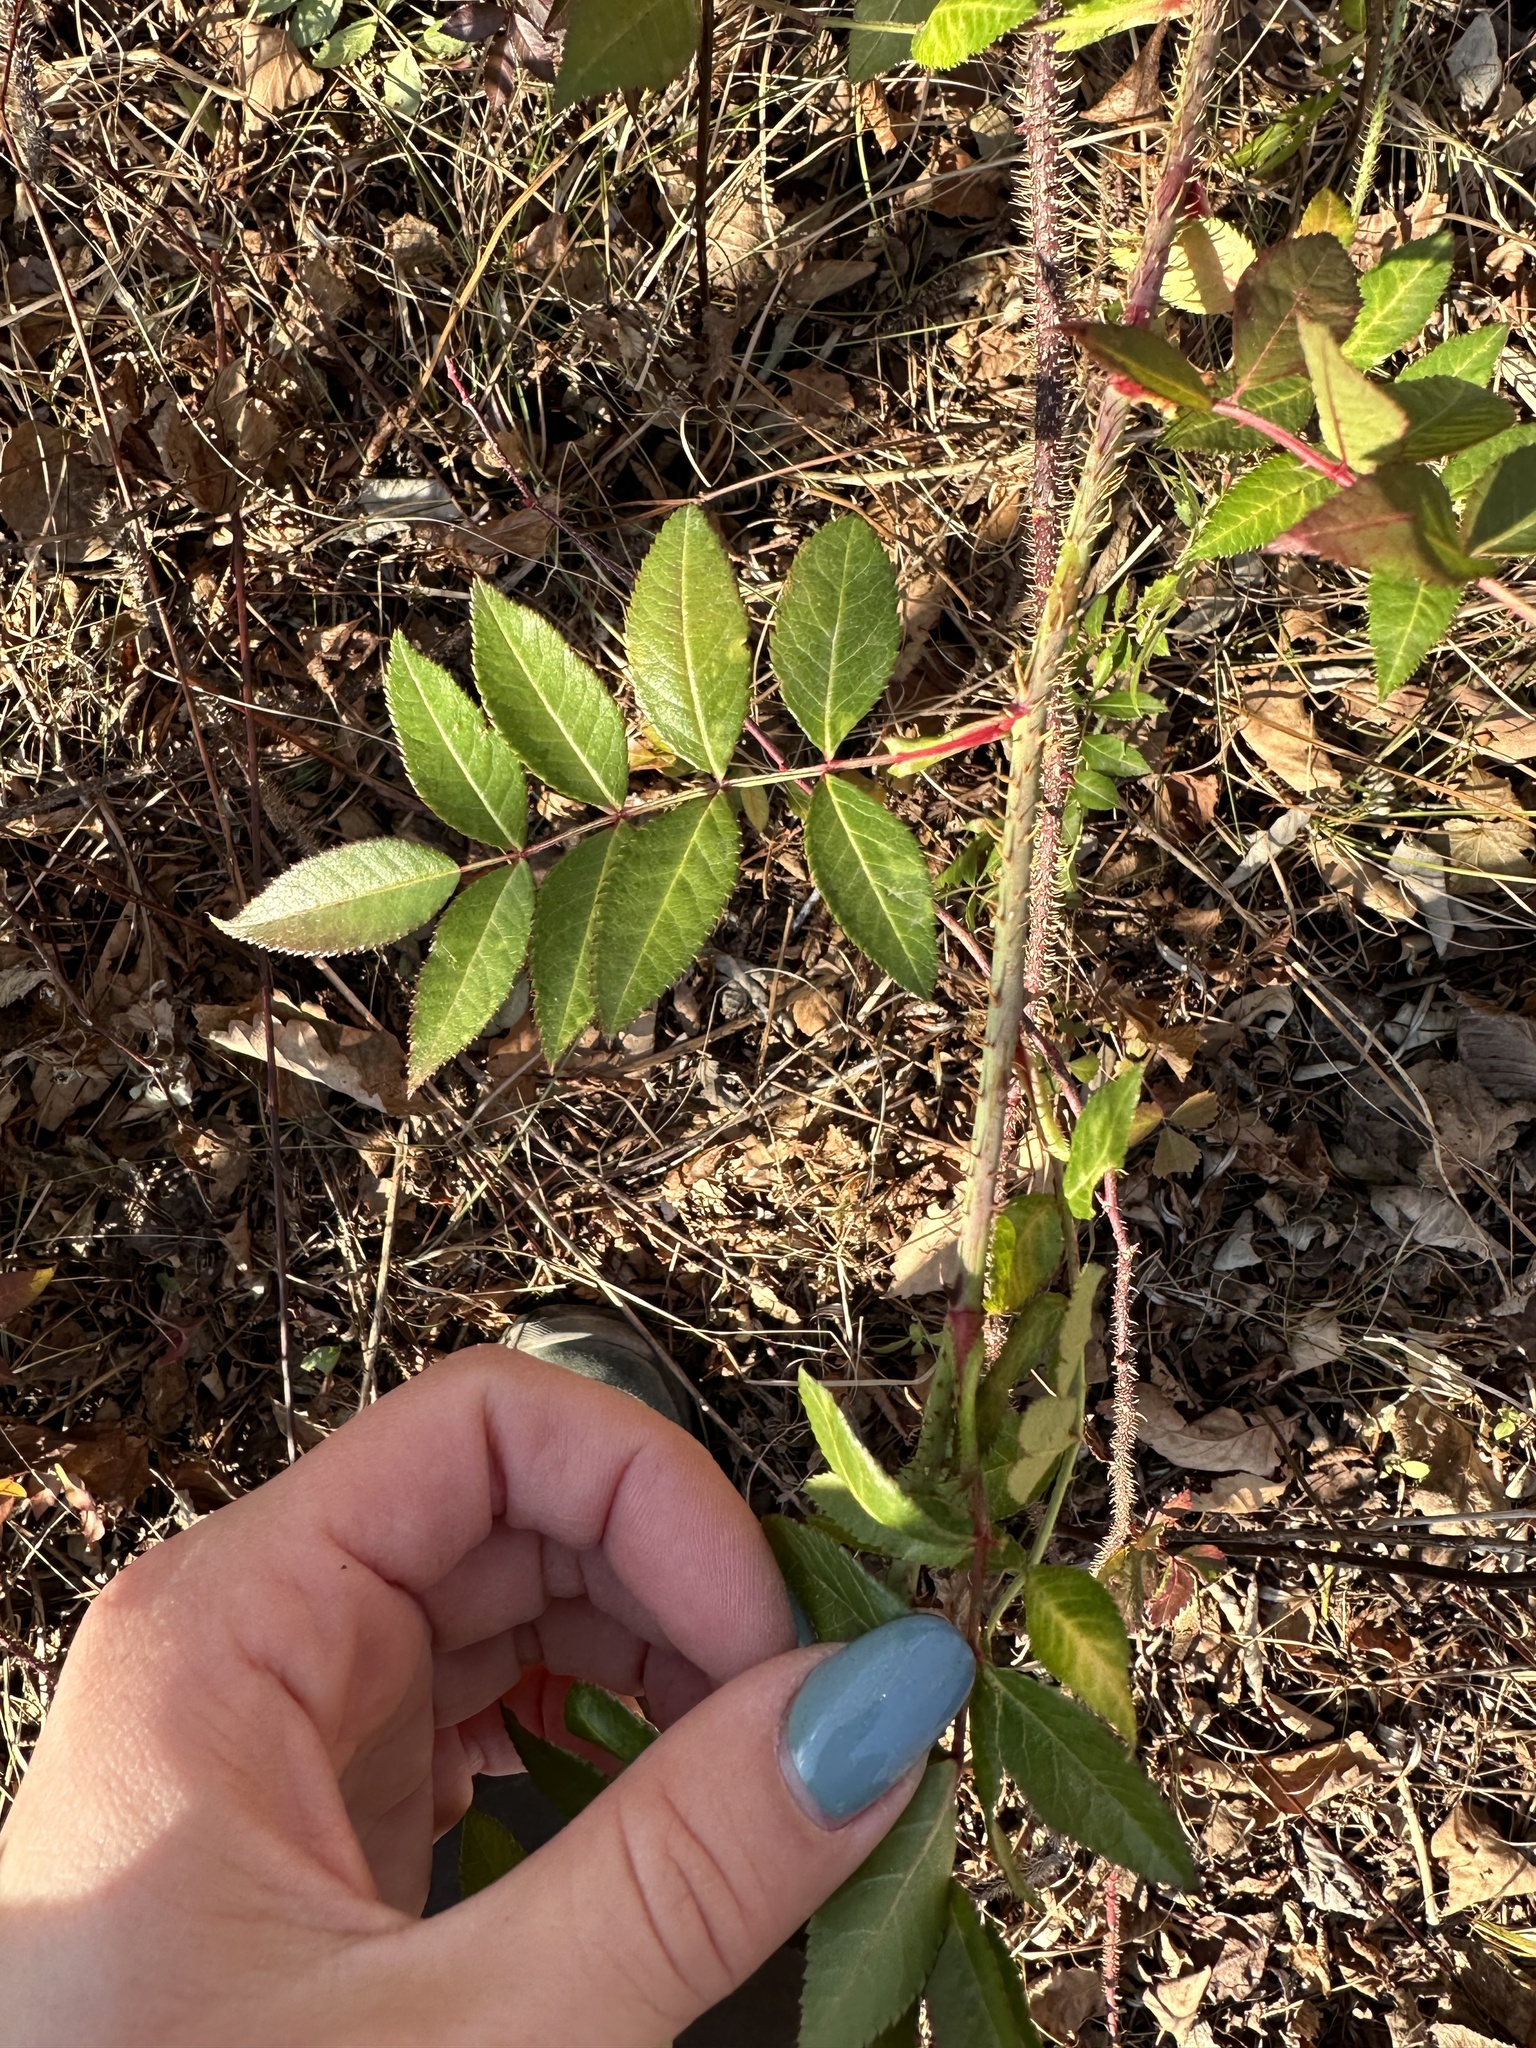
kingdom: Plantae
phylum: Tracheophyta
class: Magnoliopsida
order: Rosales
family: Rosaceae
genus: Rosa
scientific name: Rosa maximowicziana
